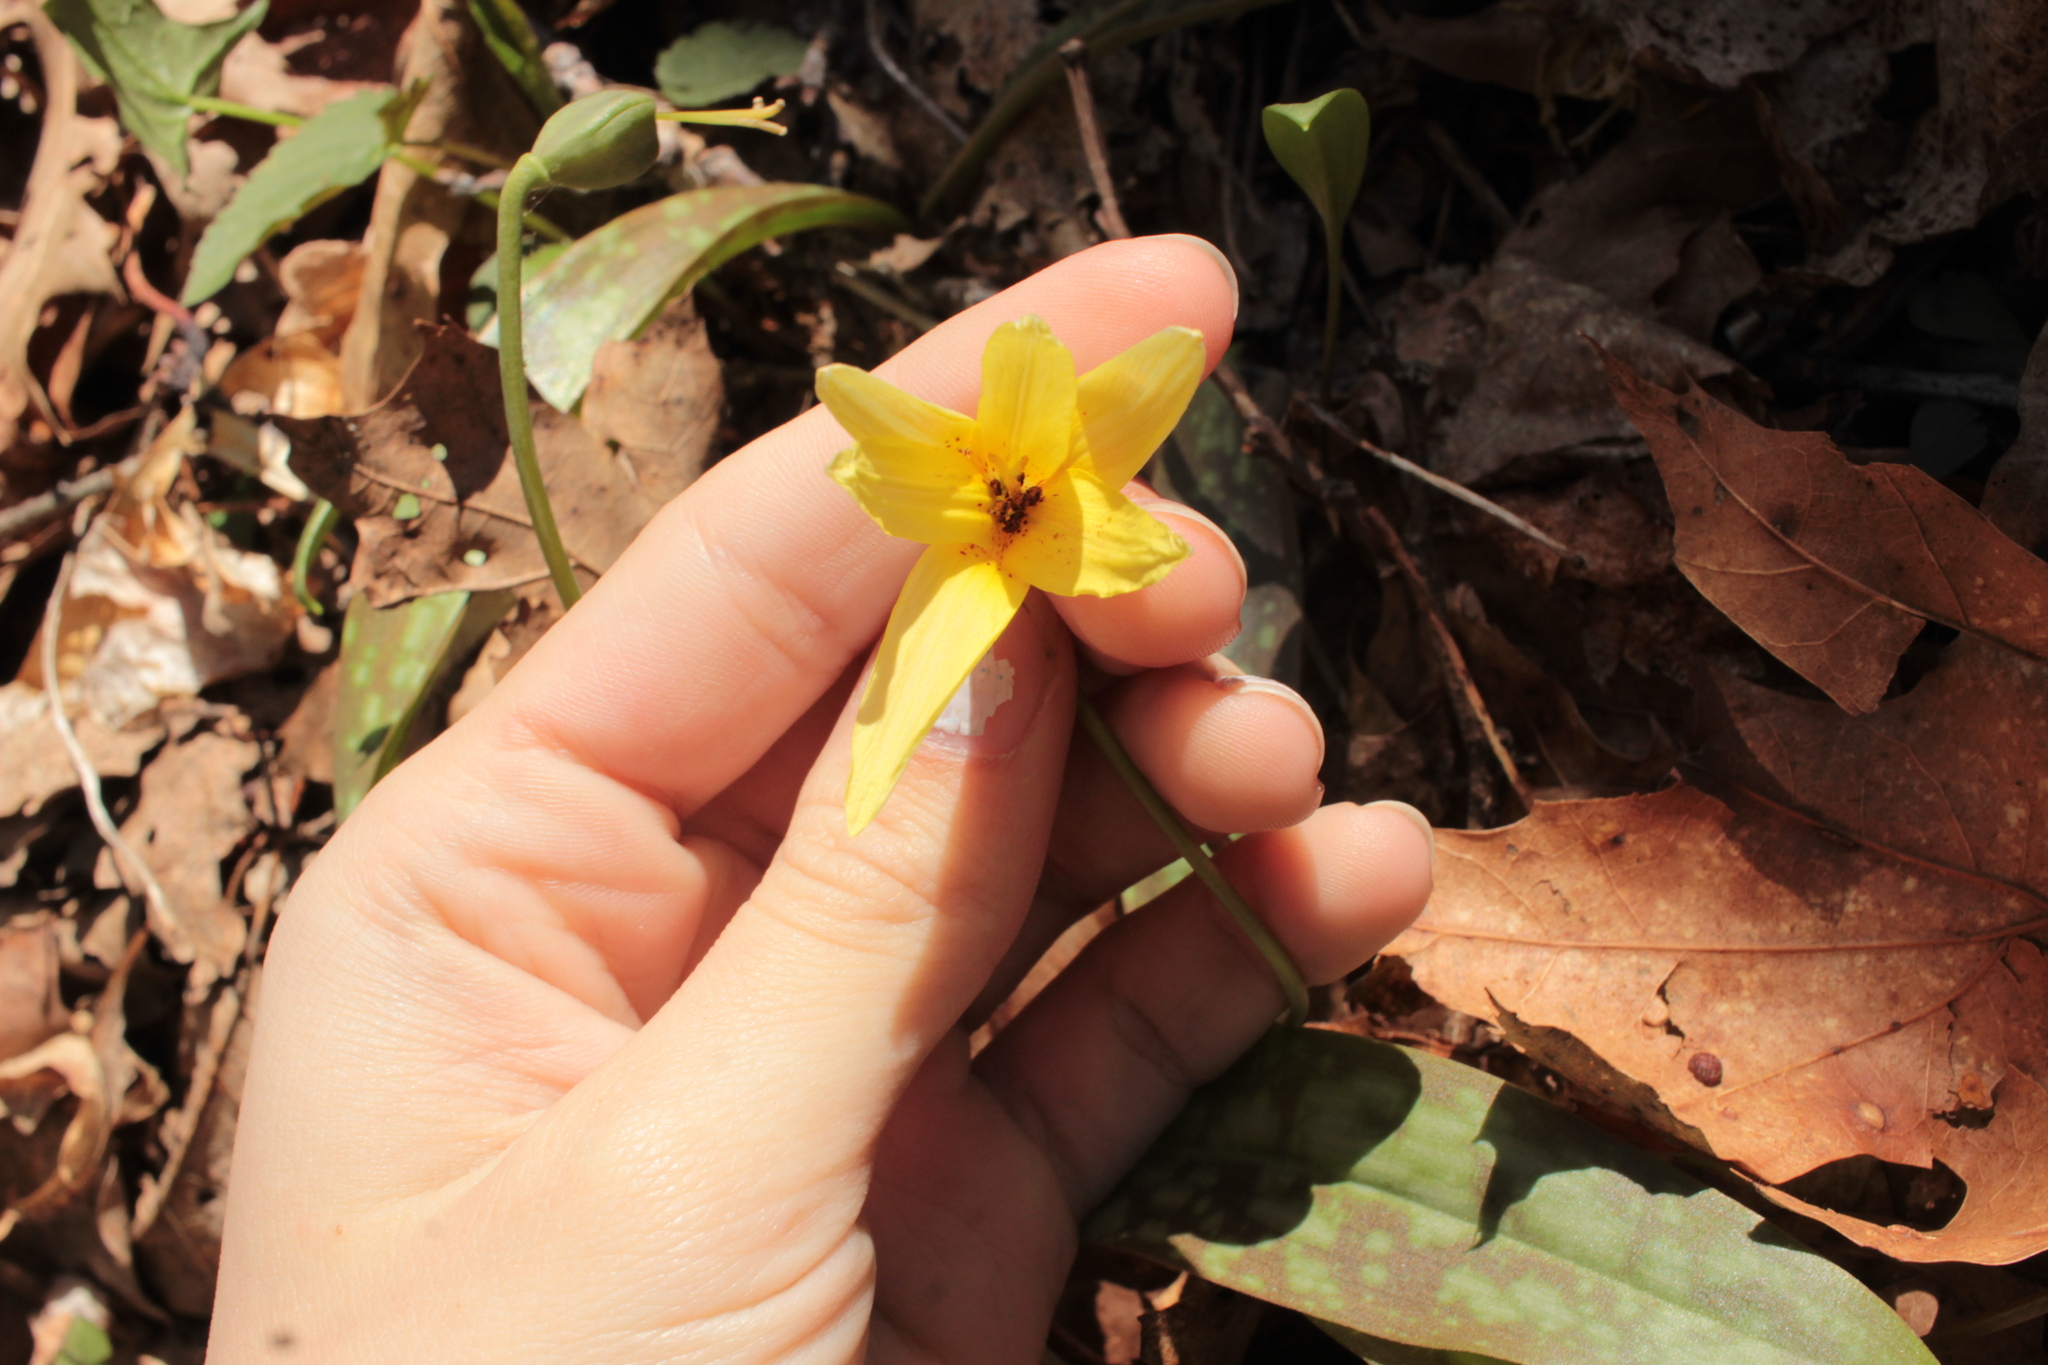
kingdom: Plantae
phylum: Tracheophyta
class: Liliopsida
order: Liliales
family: Liliaceae
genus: Erythronium
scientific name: Erythronium umbilicatum
